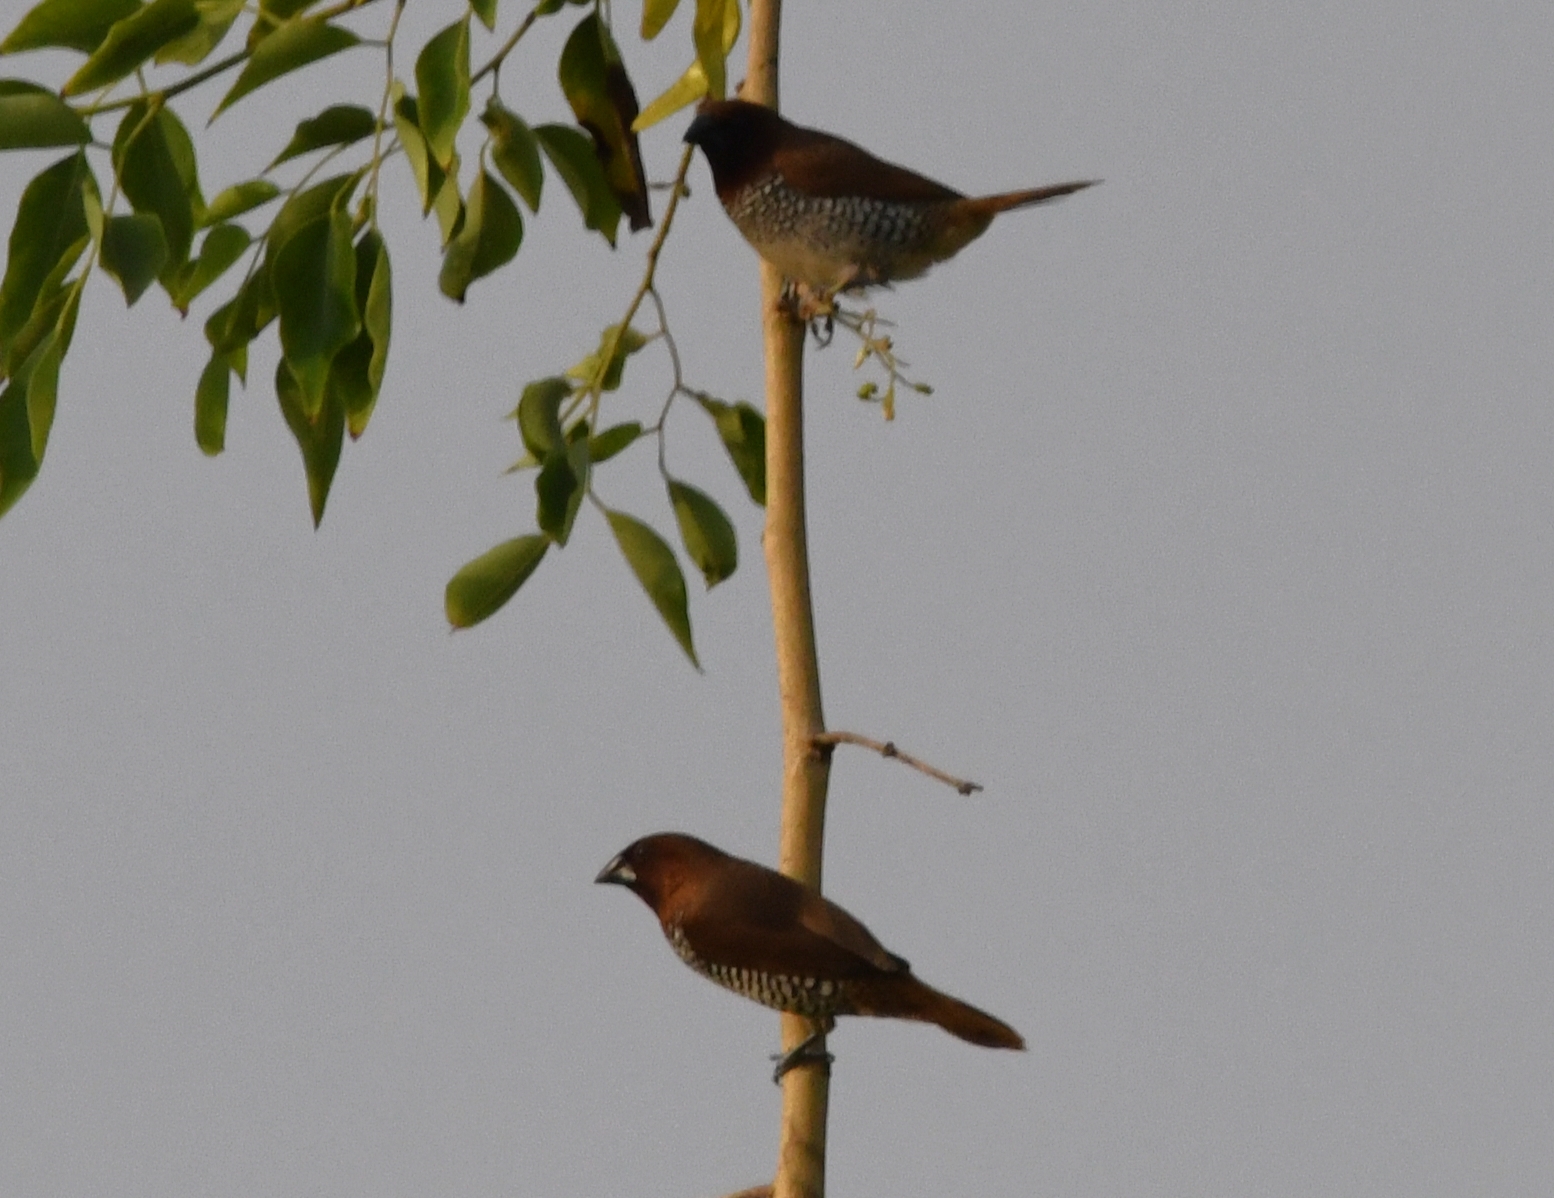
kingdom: Animalia
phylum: Chordata
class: Aves
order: Passeriformes
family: Estrildidae
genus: Lonchura
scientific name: Lonchura punctulata
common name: Scaly-breasted munia
